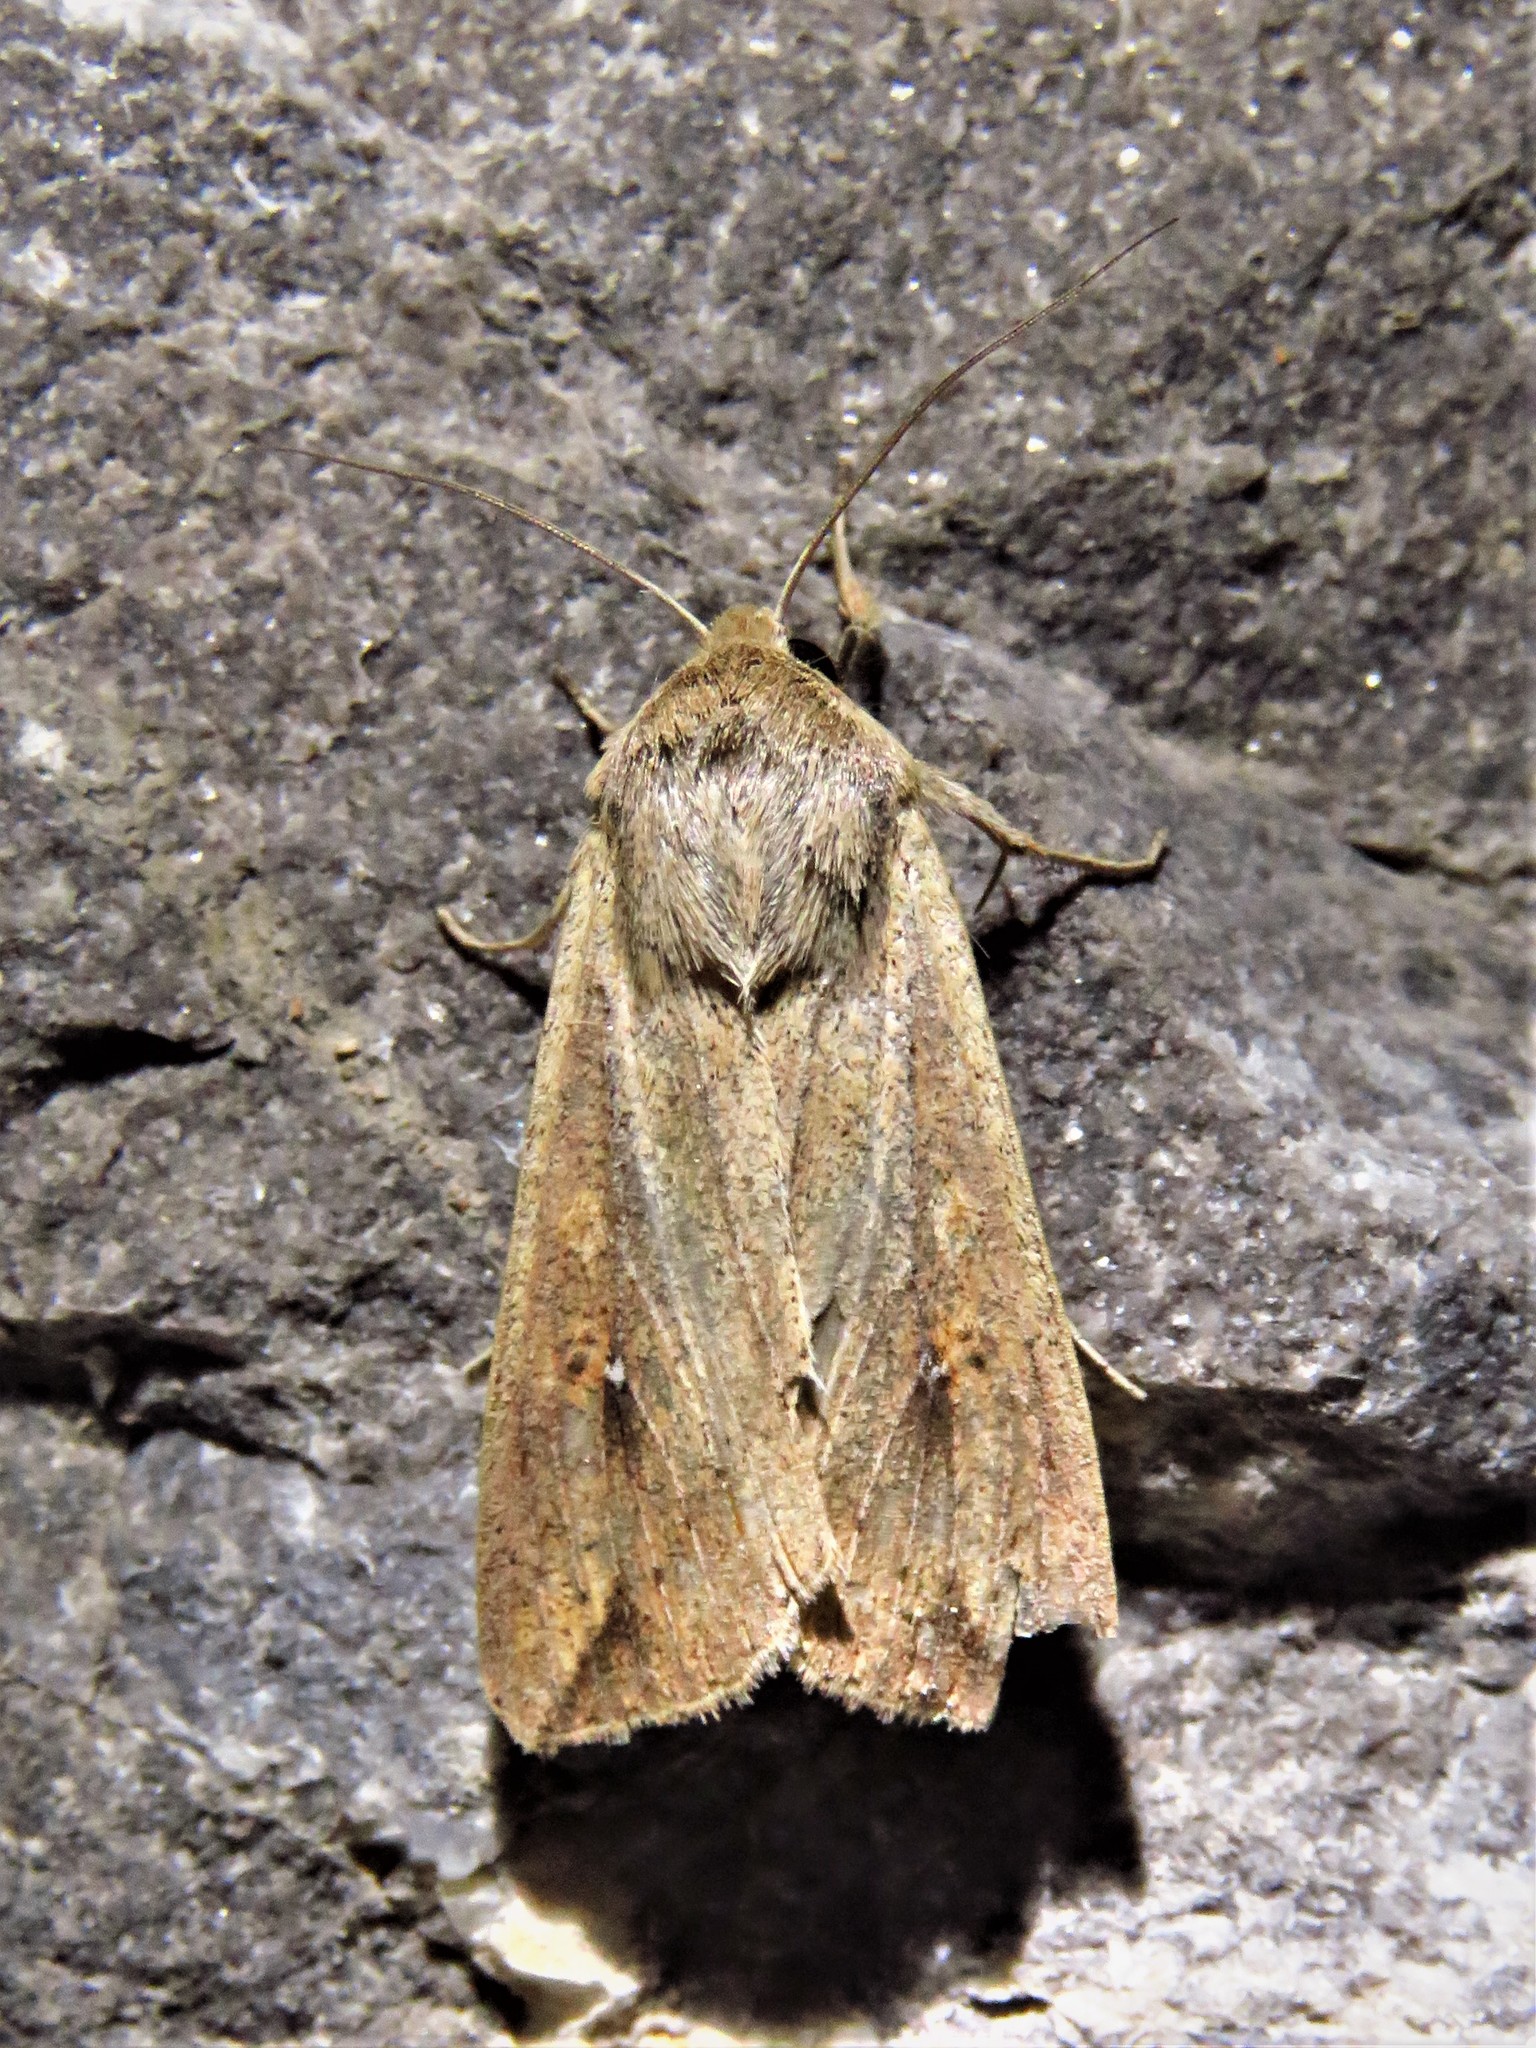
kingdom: Animalia
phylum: Arthropoda
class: Insecta
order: Lepidoptera
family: Noctuidae
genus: Mythimna
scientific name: Mythimna unipuncta
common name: White-speck
